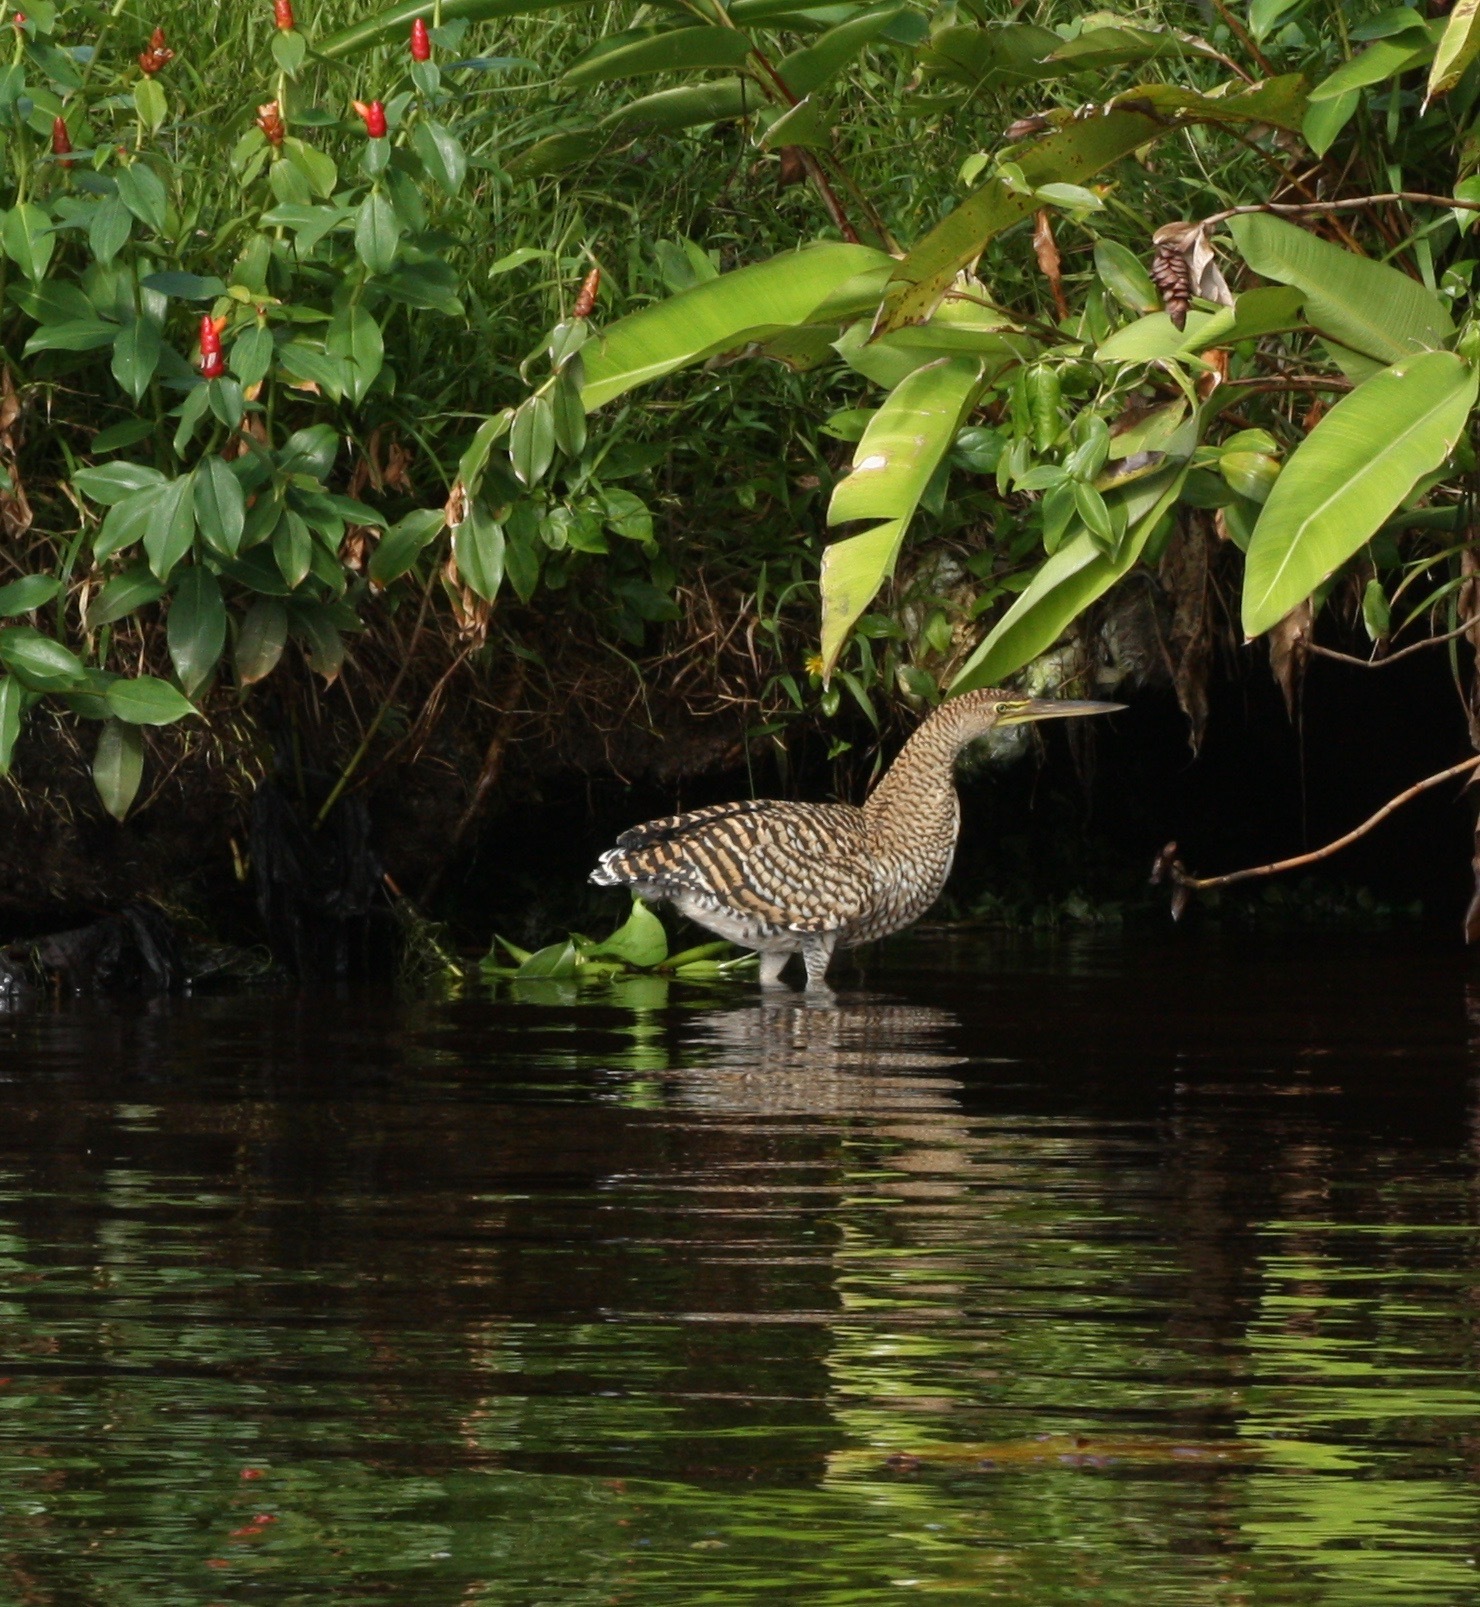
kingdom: Animalia
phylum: Chordata
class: Aves
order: Pelecaniformes
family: Ardeidae
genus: Tigrisoma
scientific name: Tigrisoma mexicanum
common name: Bare-throated tiger-heron
